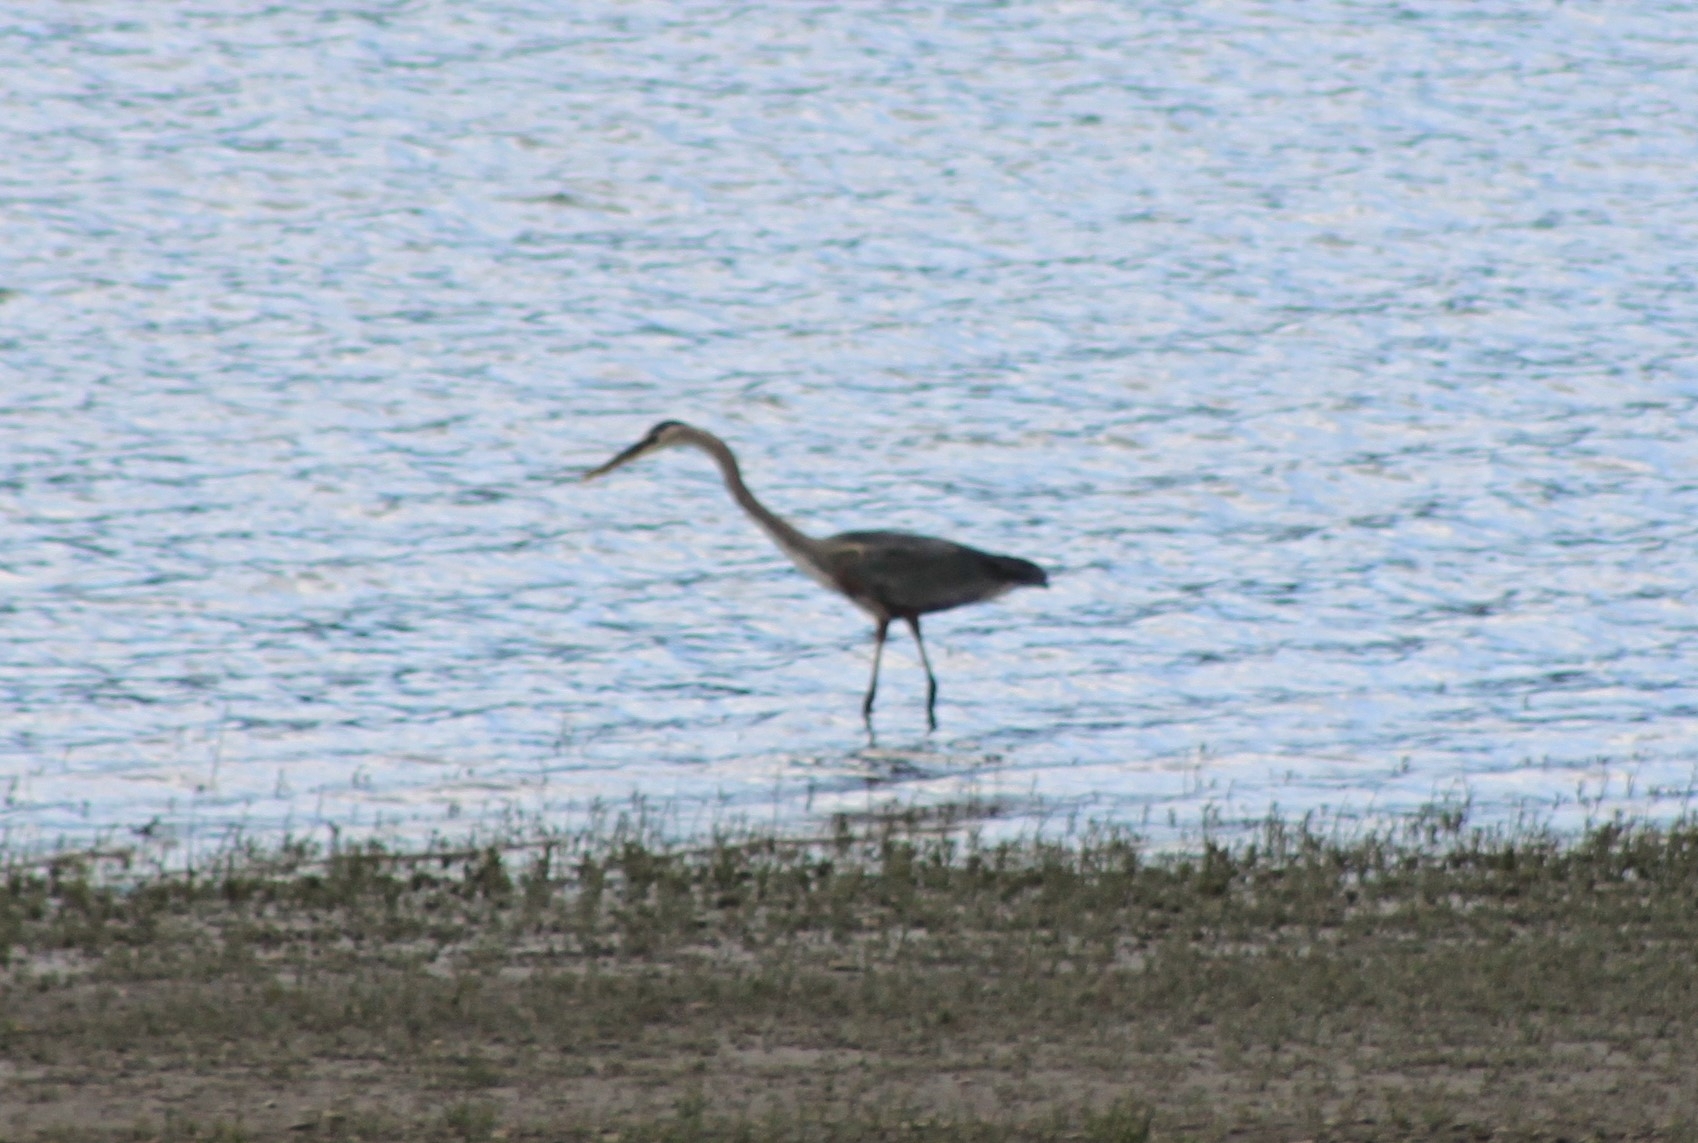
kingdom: Animalia
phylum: Chordata
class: Aves
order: Pelecaniformes
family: Ardeidae
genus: Ardea
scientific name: Ardea herodias
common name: Great blue heron
